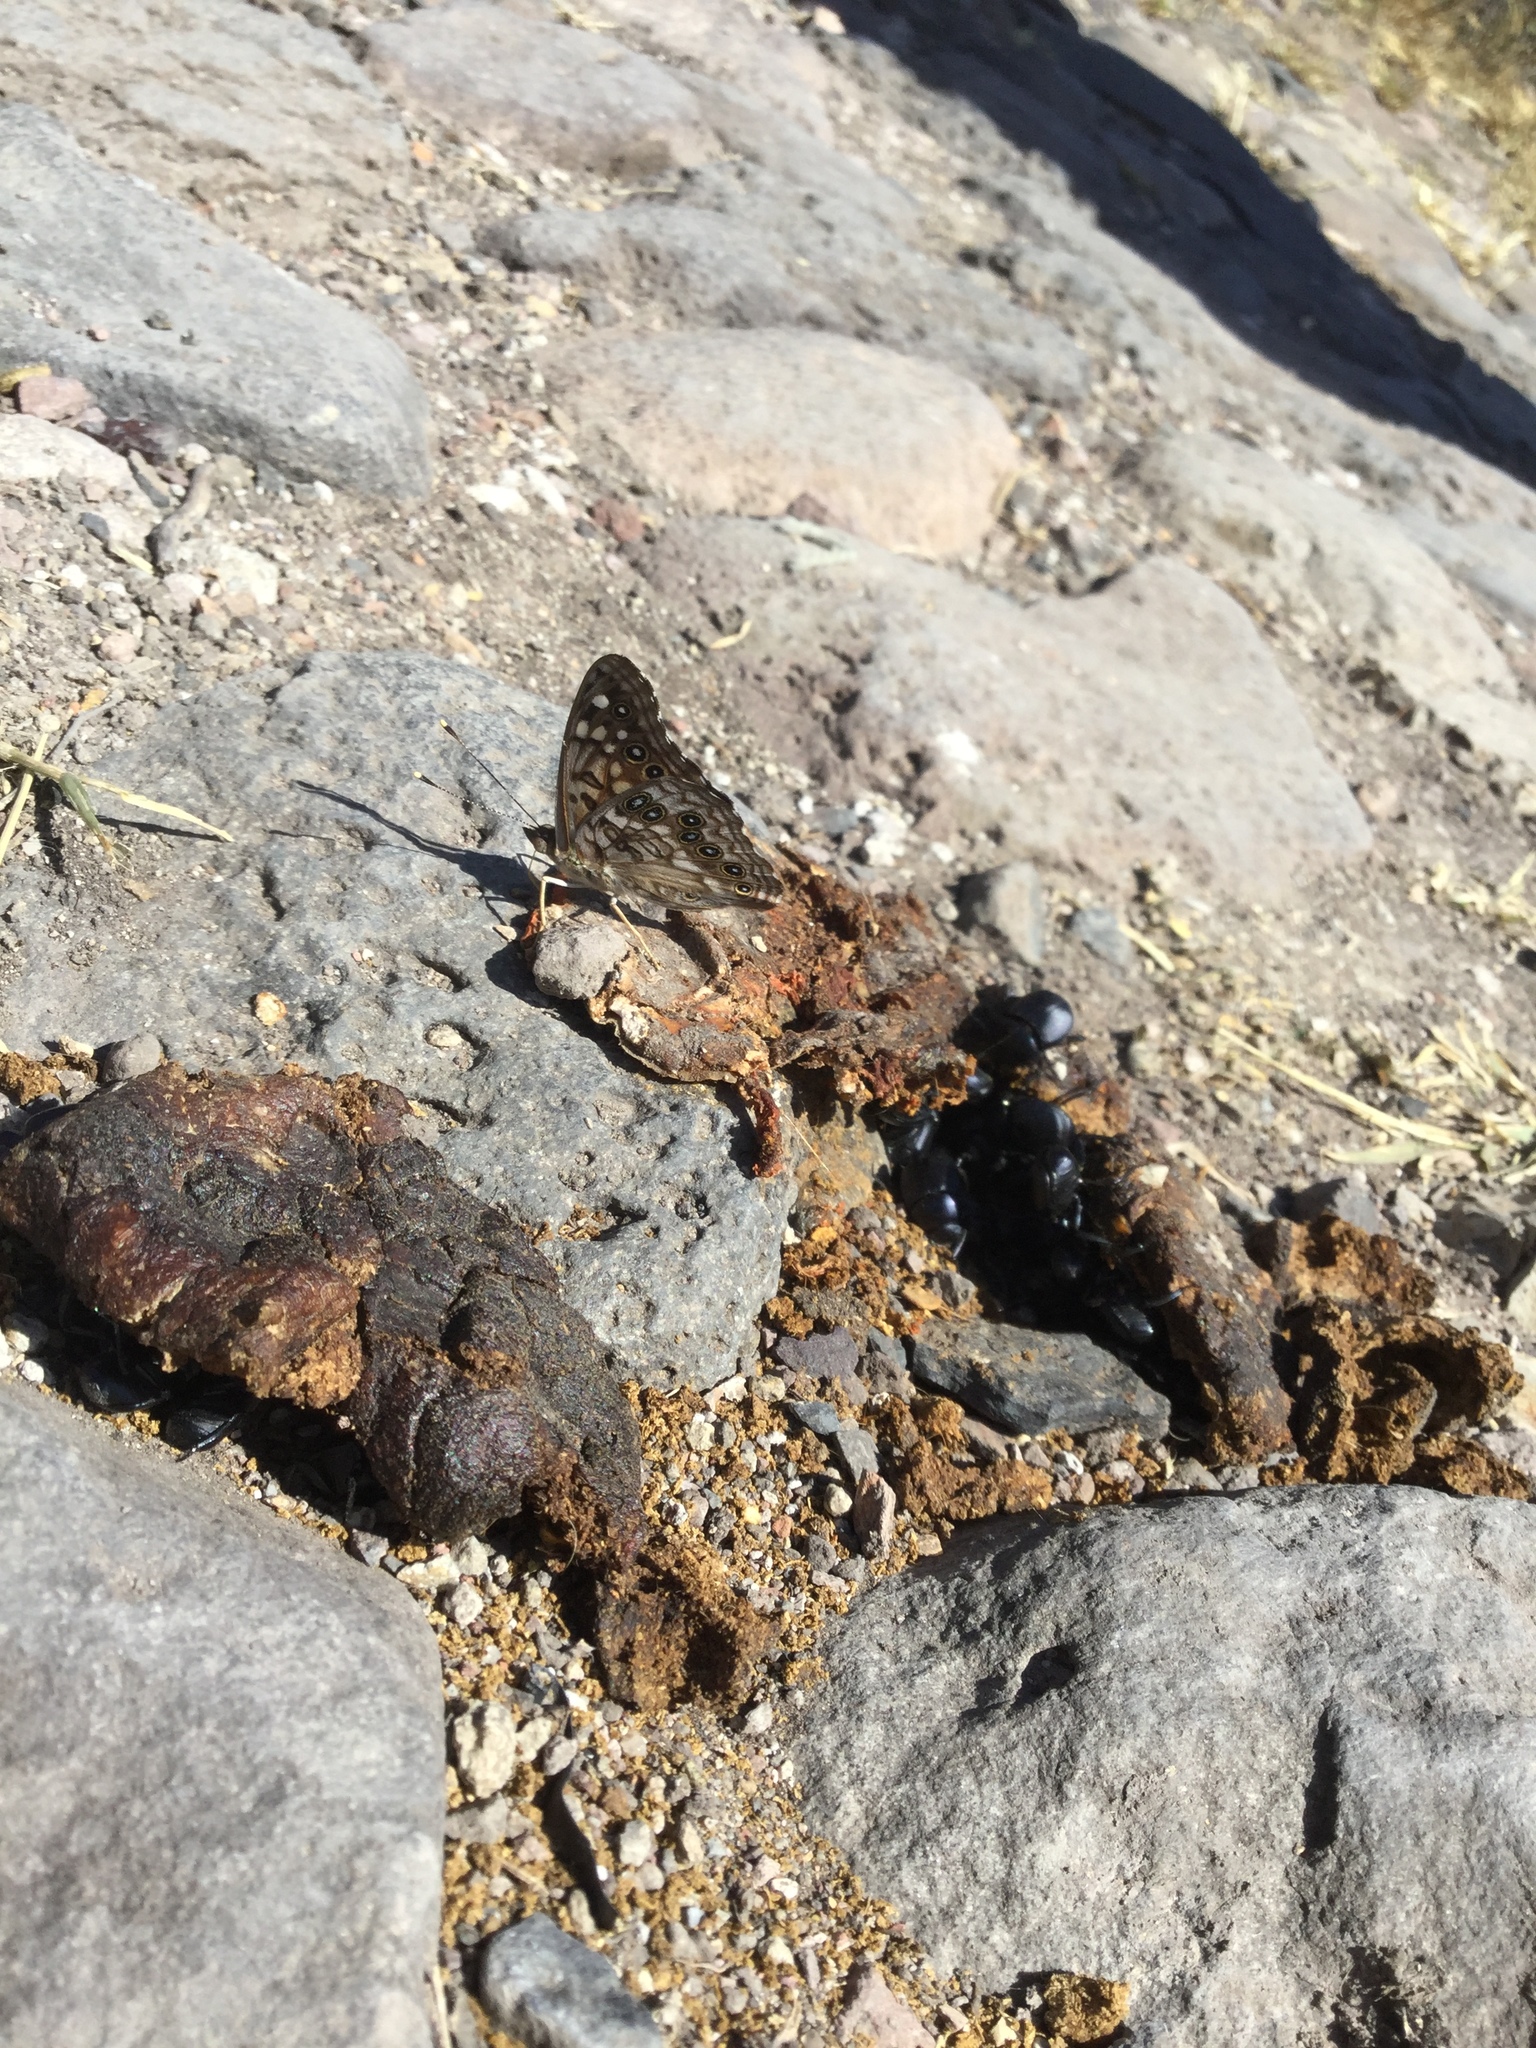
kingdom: Animalia
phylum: Arthropoda
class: Insecta
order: Lepidoptera
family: Nymphalidae
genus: Asterocampa
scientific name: Asterocampa leilia
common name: Empress leilia
